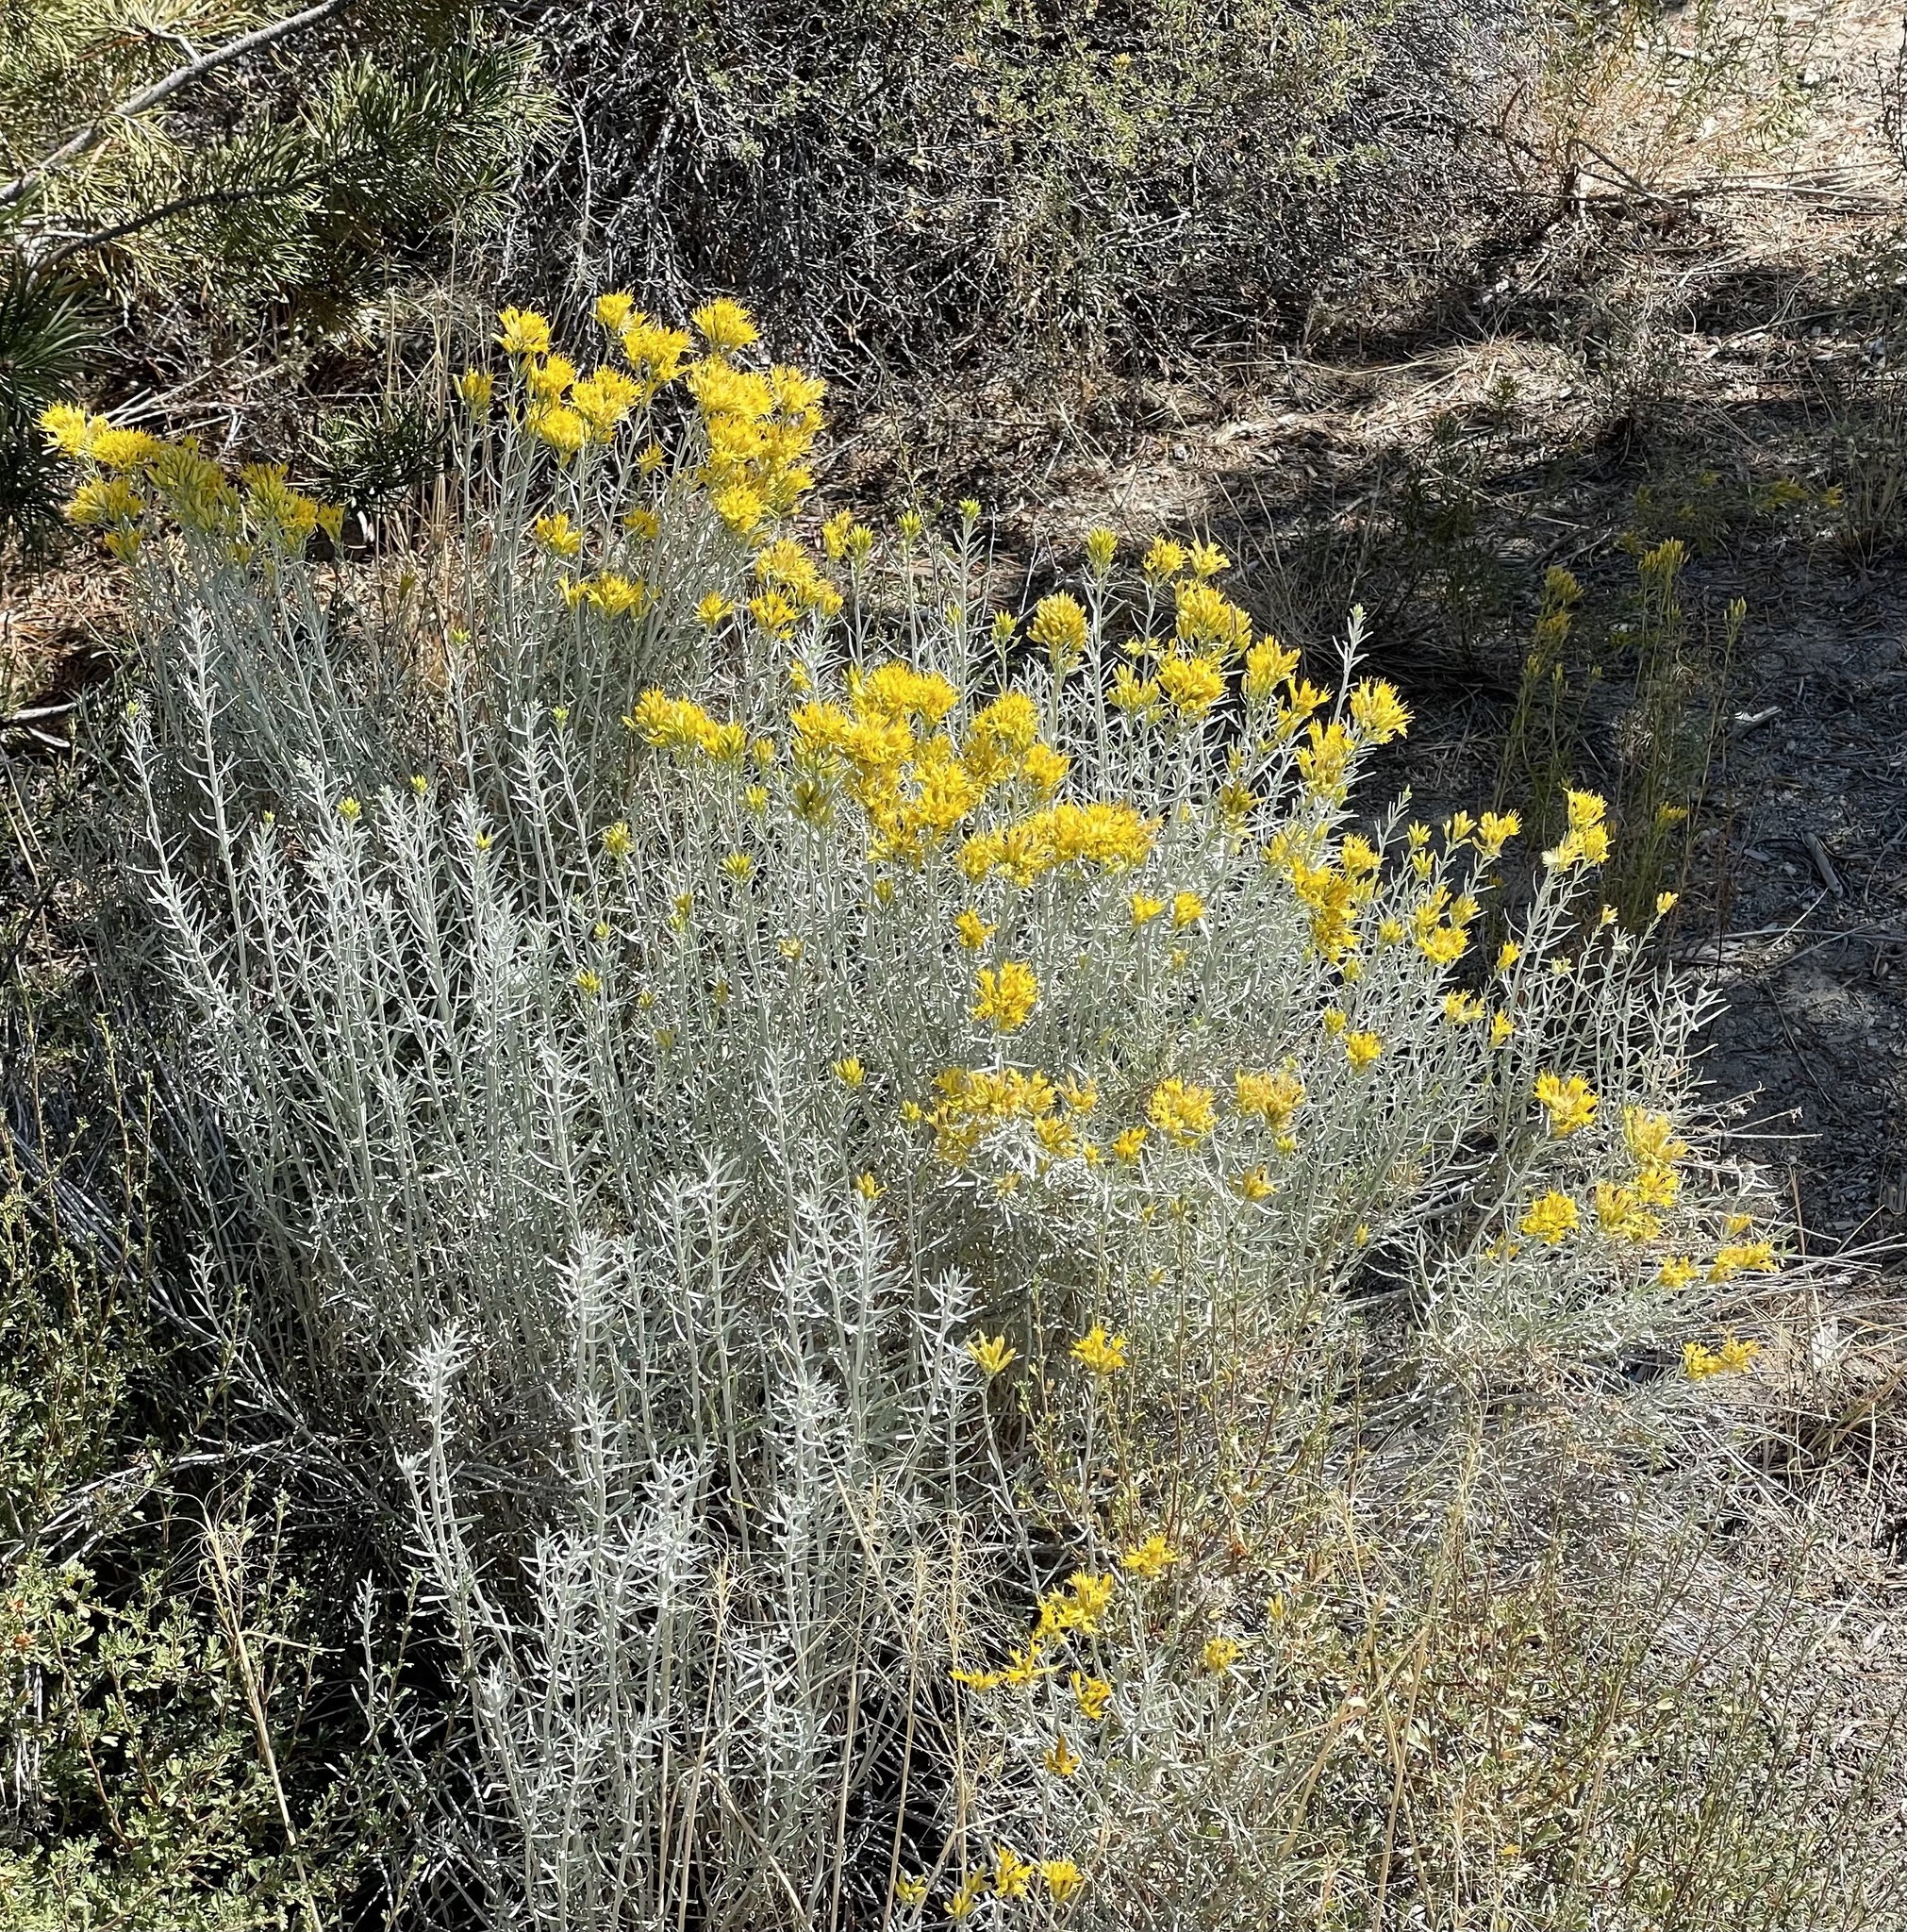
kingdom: Plantae
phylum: Tracheophyta
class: Magnoliopsida
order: Asterales
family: Asteraceae
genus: Ericameria
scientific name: Ericameria nauseosa
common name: Rubber rabbitbrush
